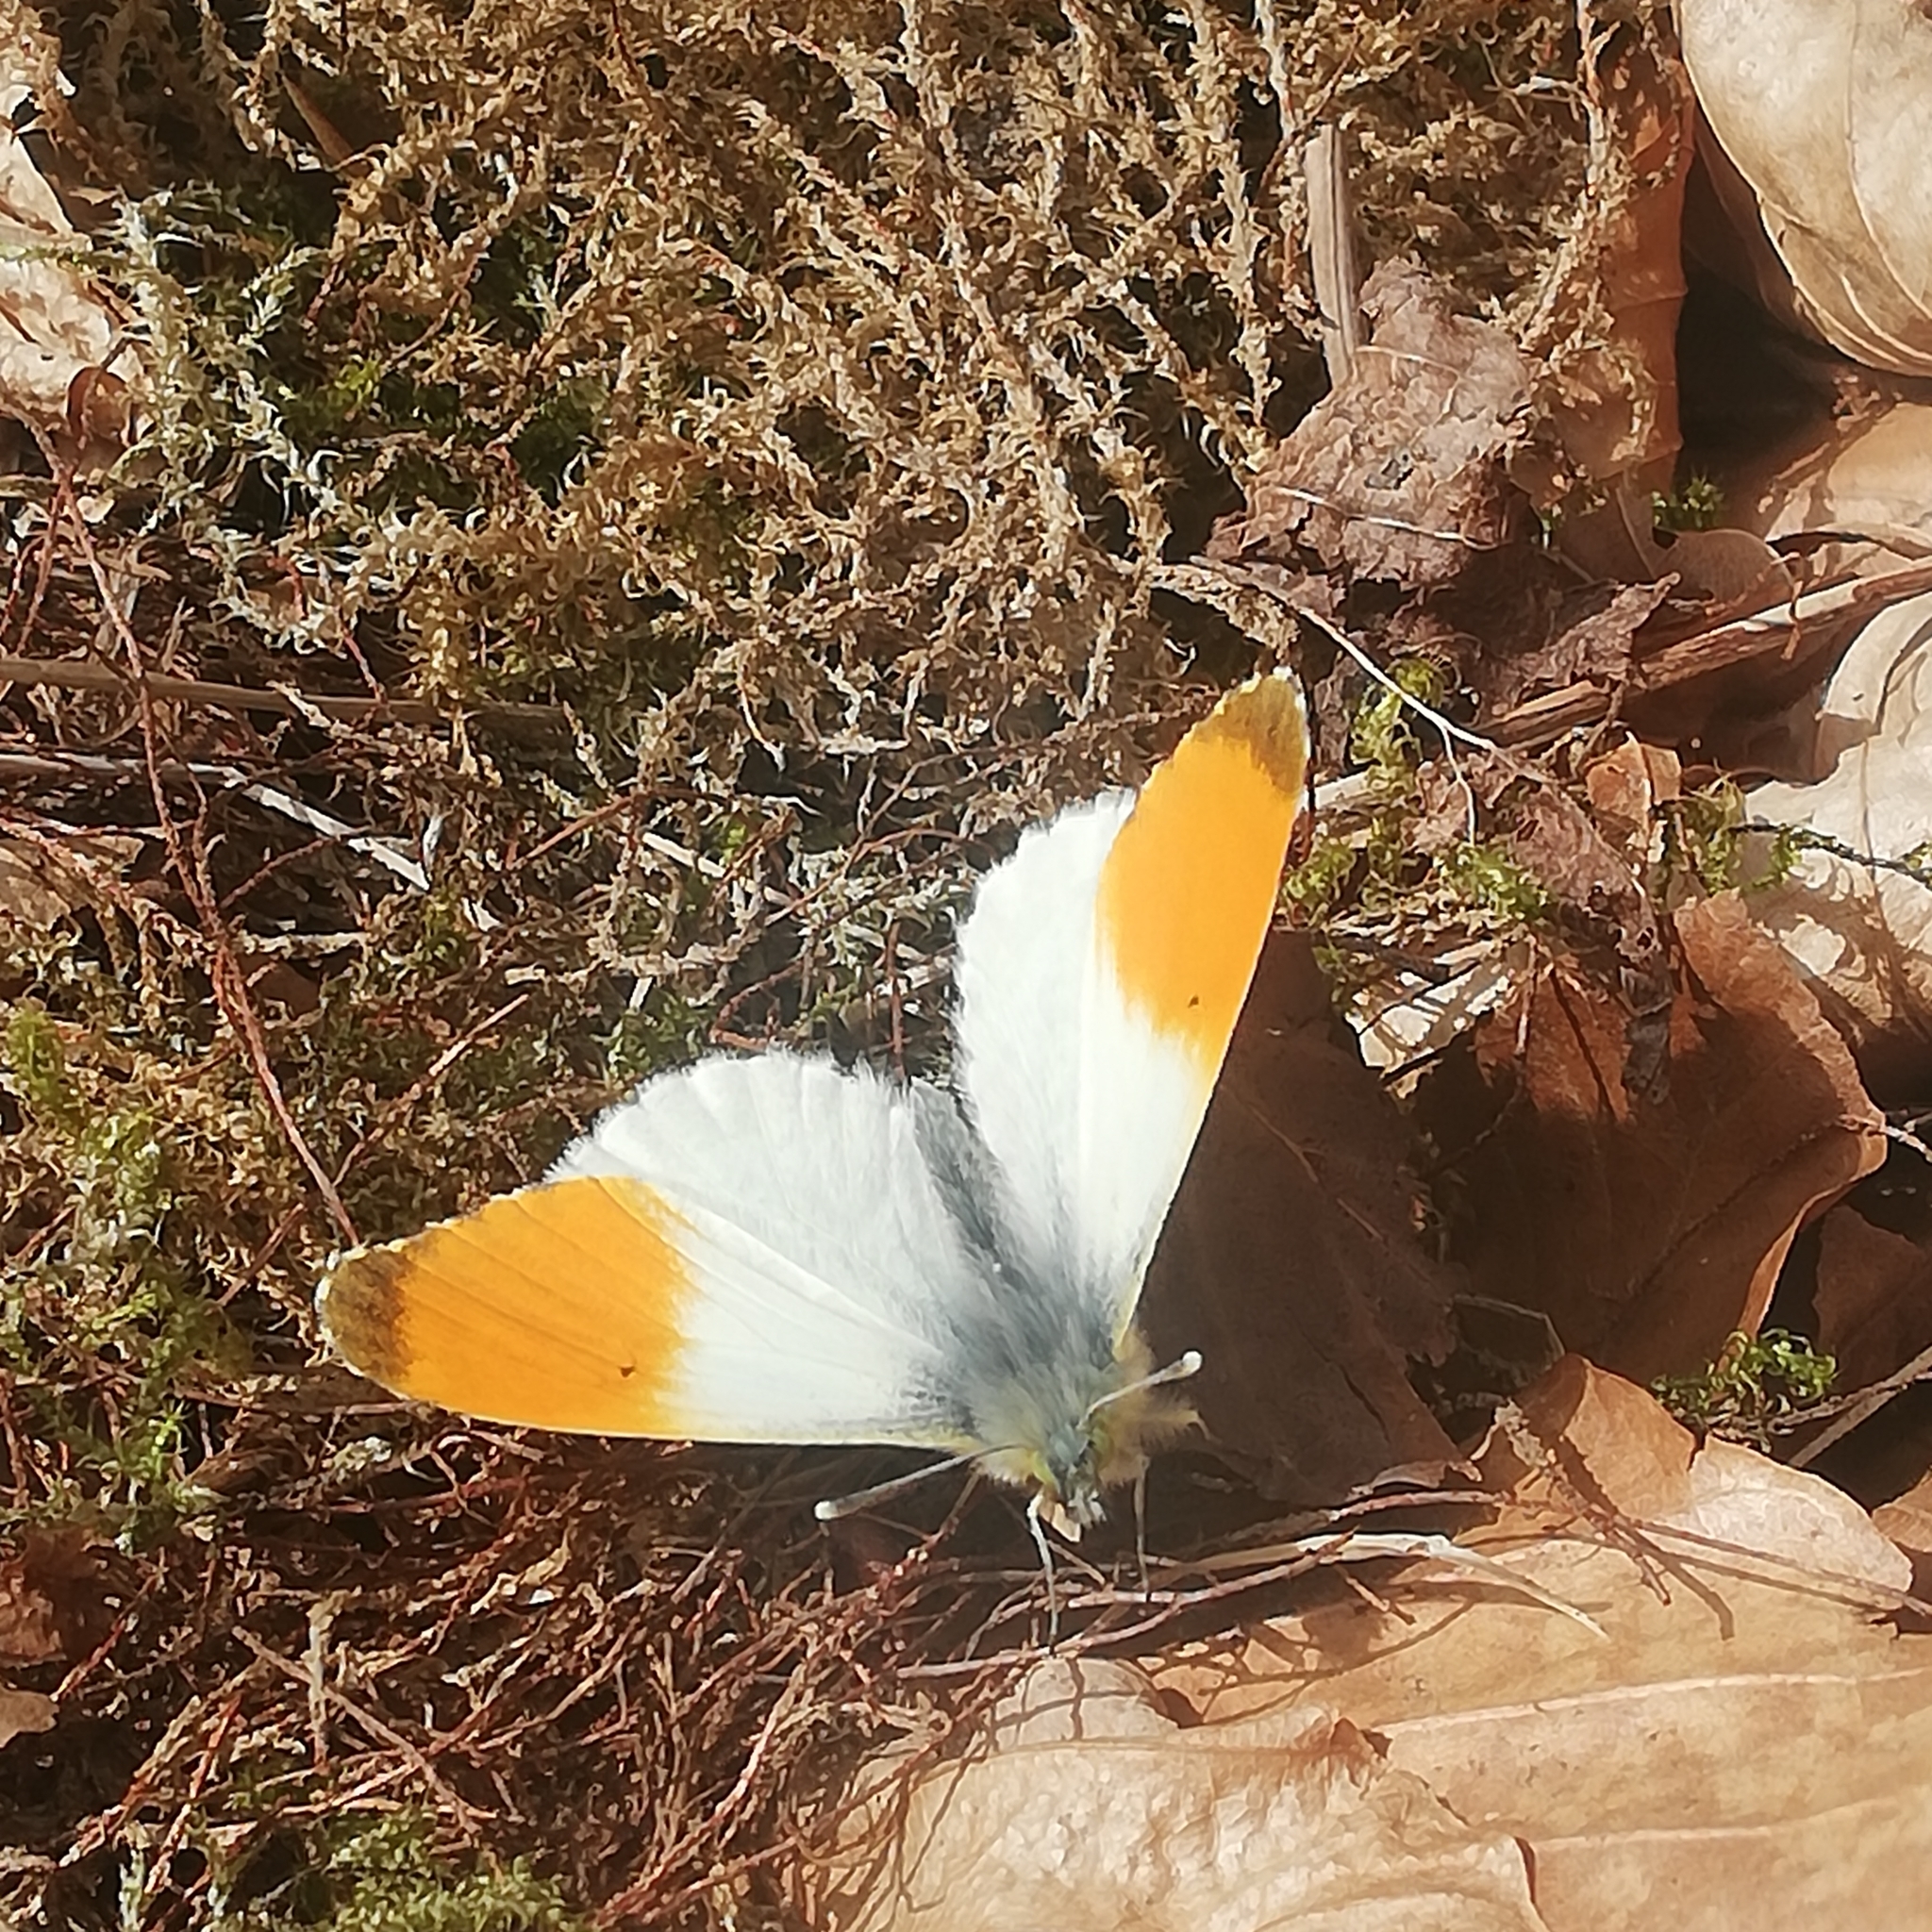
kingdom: Animalia
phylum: Arthropoda
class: Insecta
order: Lepidoptera
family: Pieridae
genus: Anthocharis
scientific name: Anthocharis cardamines
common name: Orange-tip
